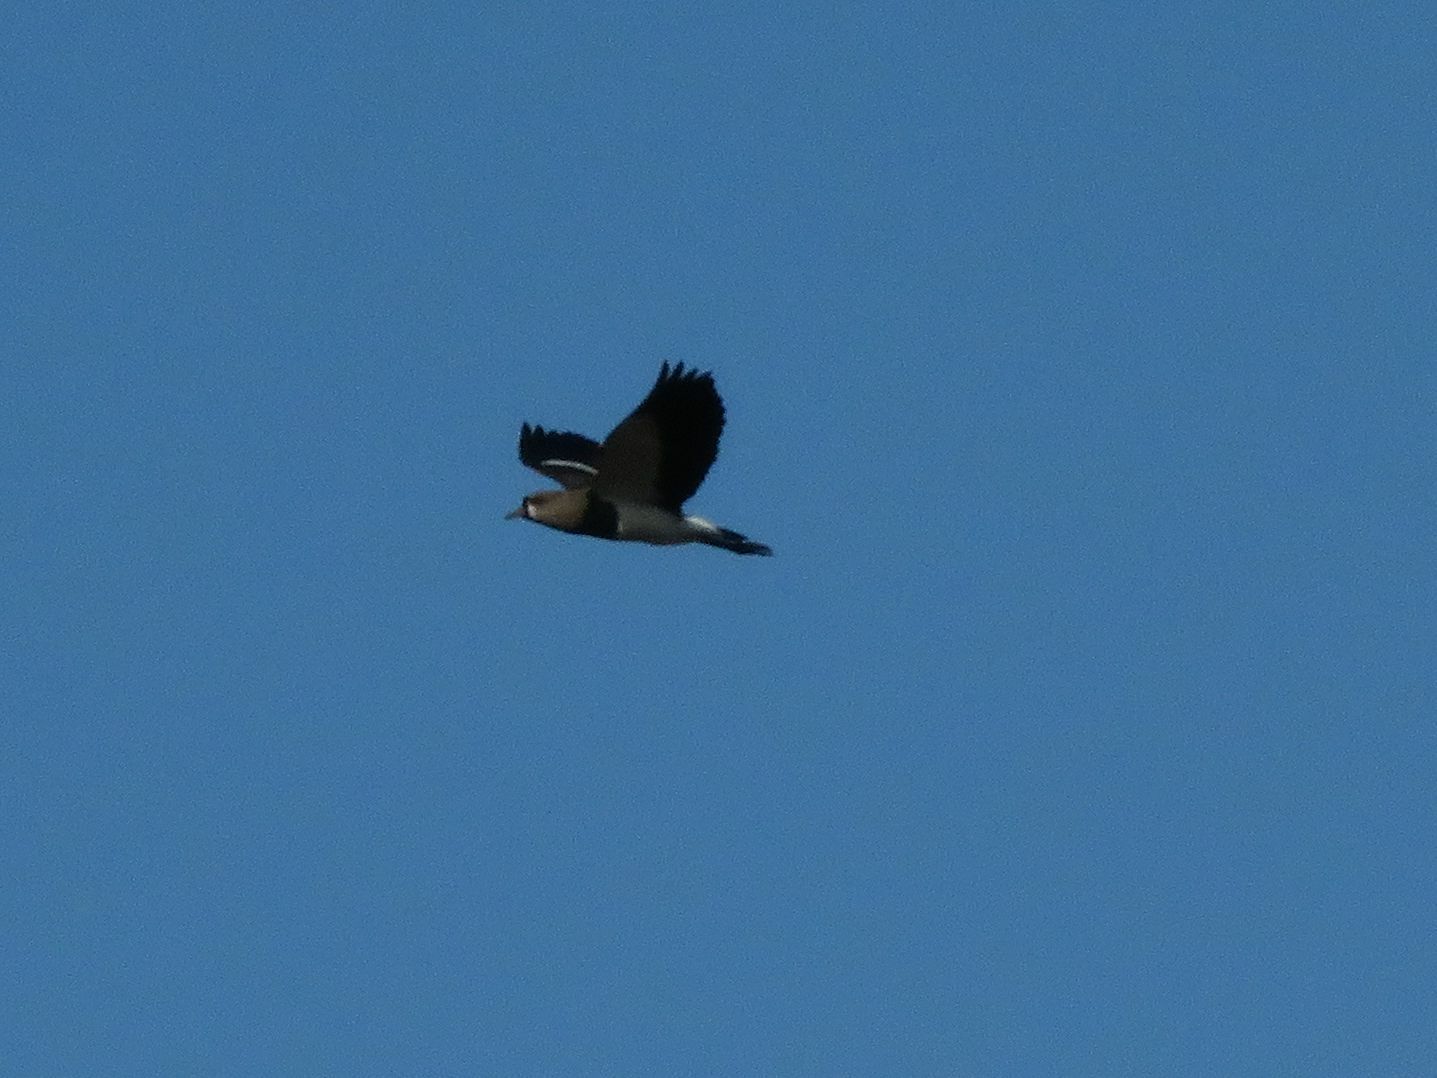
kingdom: Animalia
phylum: Chordata
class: Aves
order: Charadriiformes
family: Charadriidae
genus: Vanellus
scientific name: Vanellus chilensis
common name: Southern lapwing
